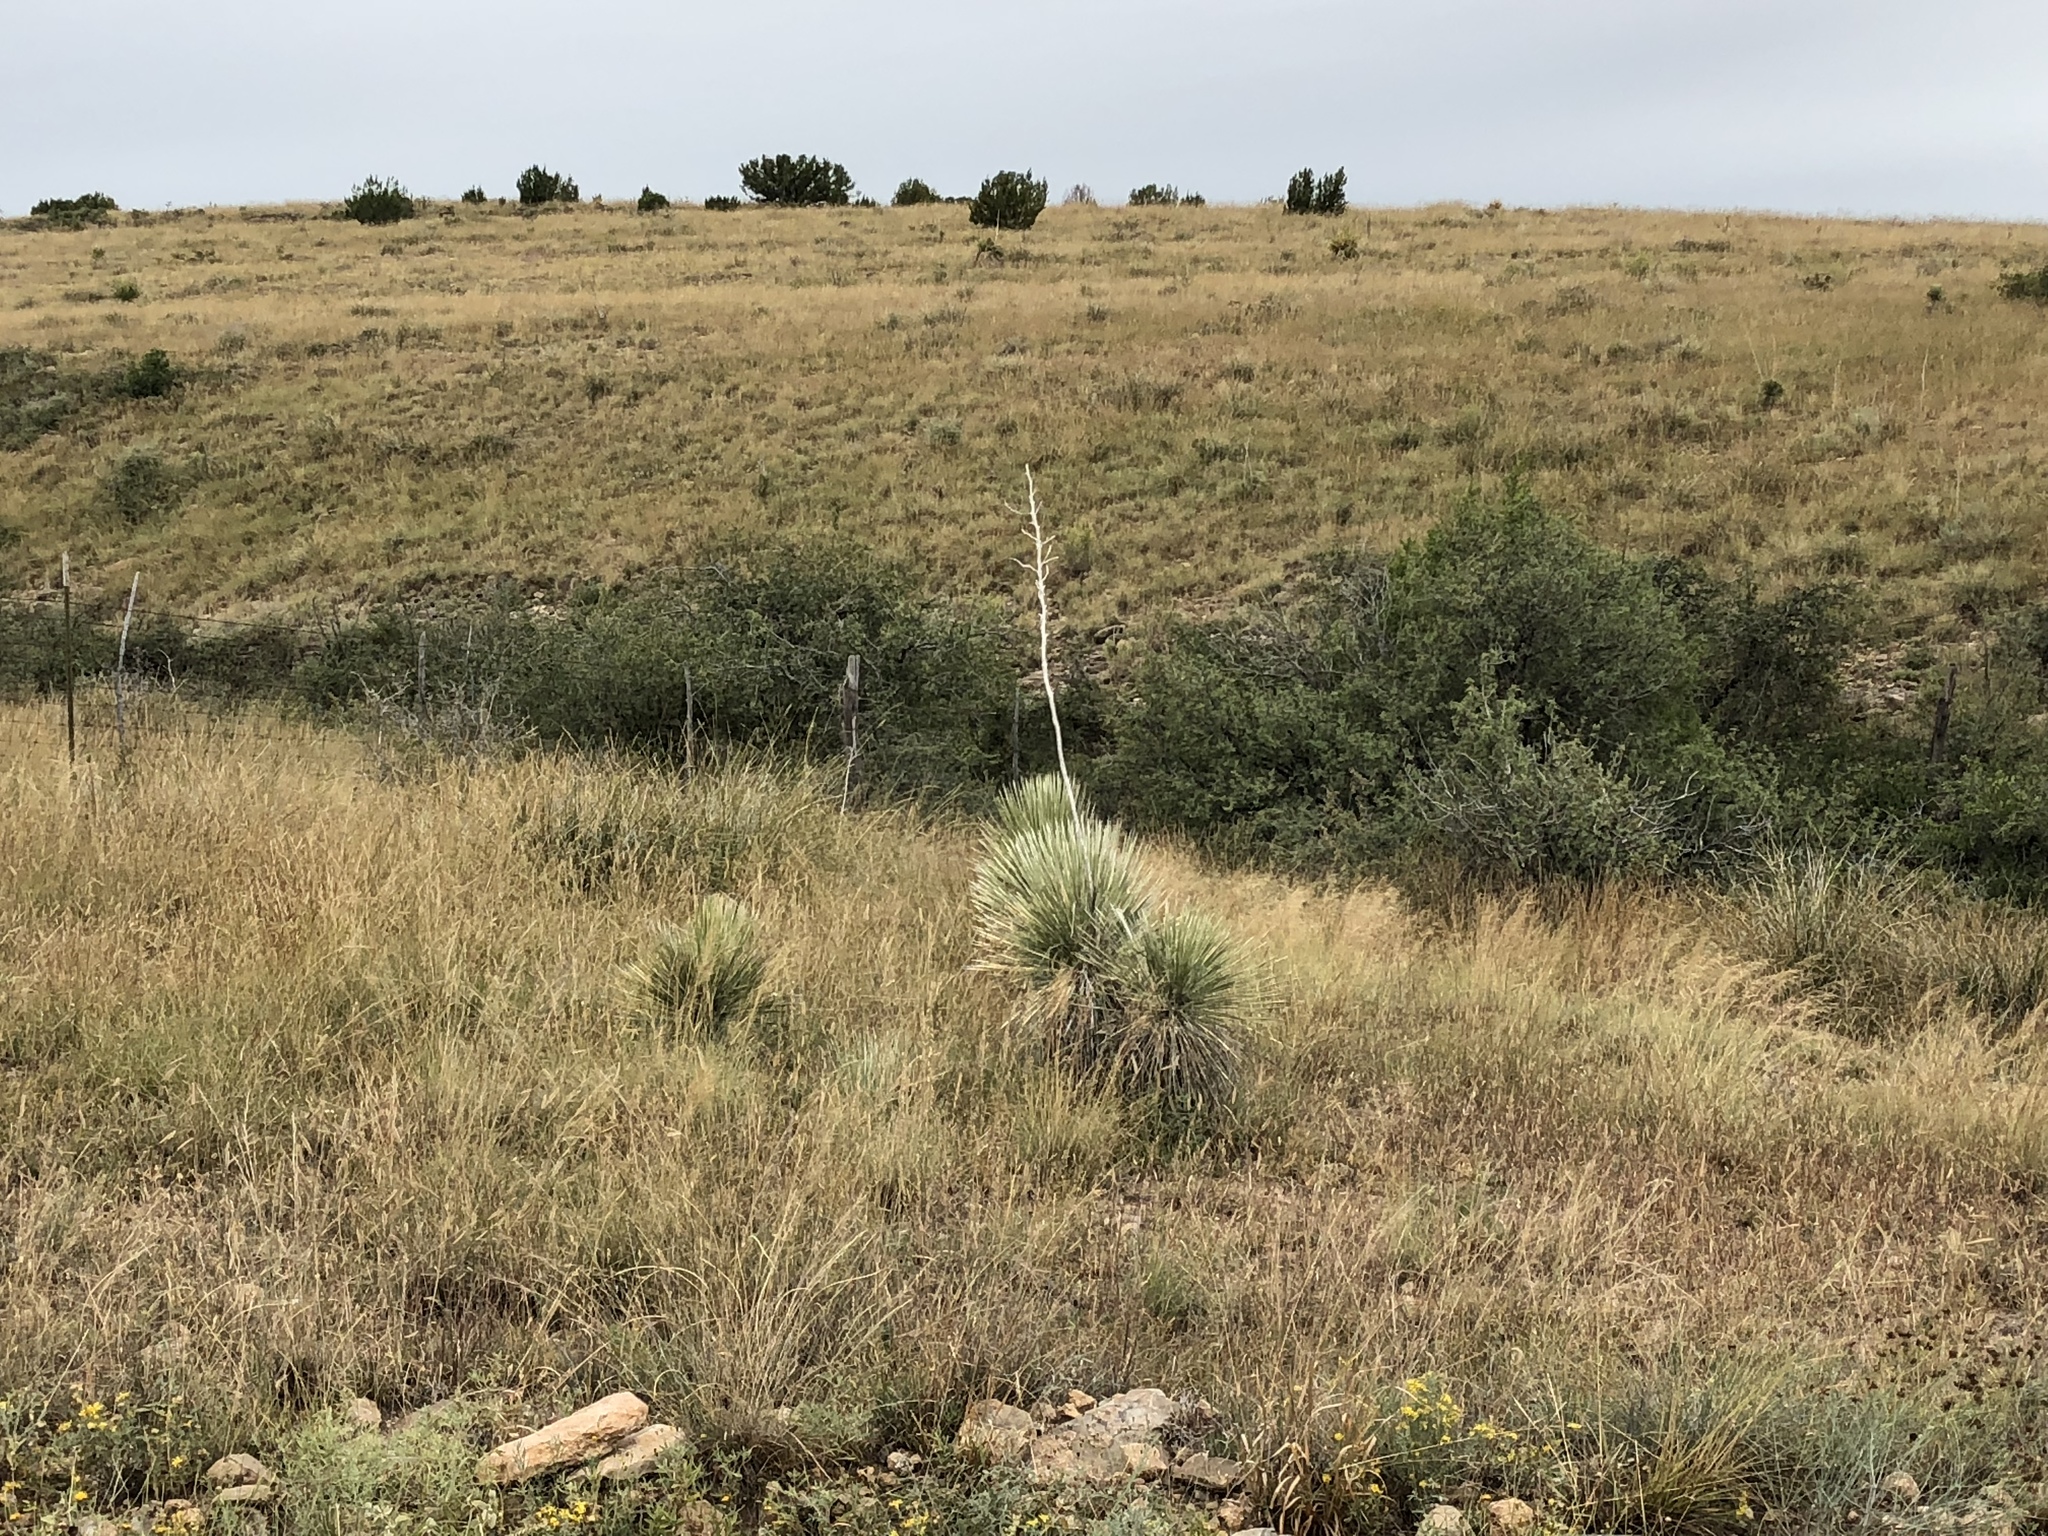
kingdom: Plantae
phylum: Tracheophyta
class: Liliopsida
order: Asparagales
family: Asparagaceae
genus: Yucca
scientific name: Yucca elata
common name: Palmella
